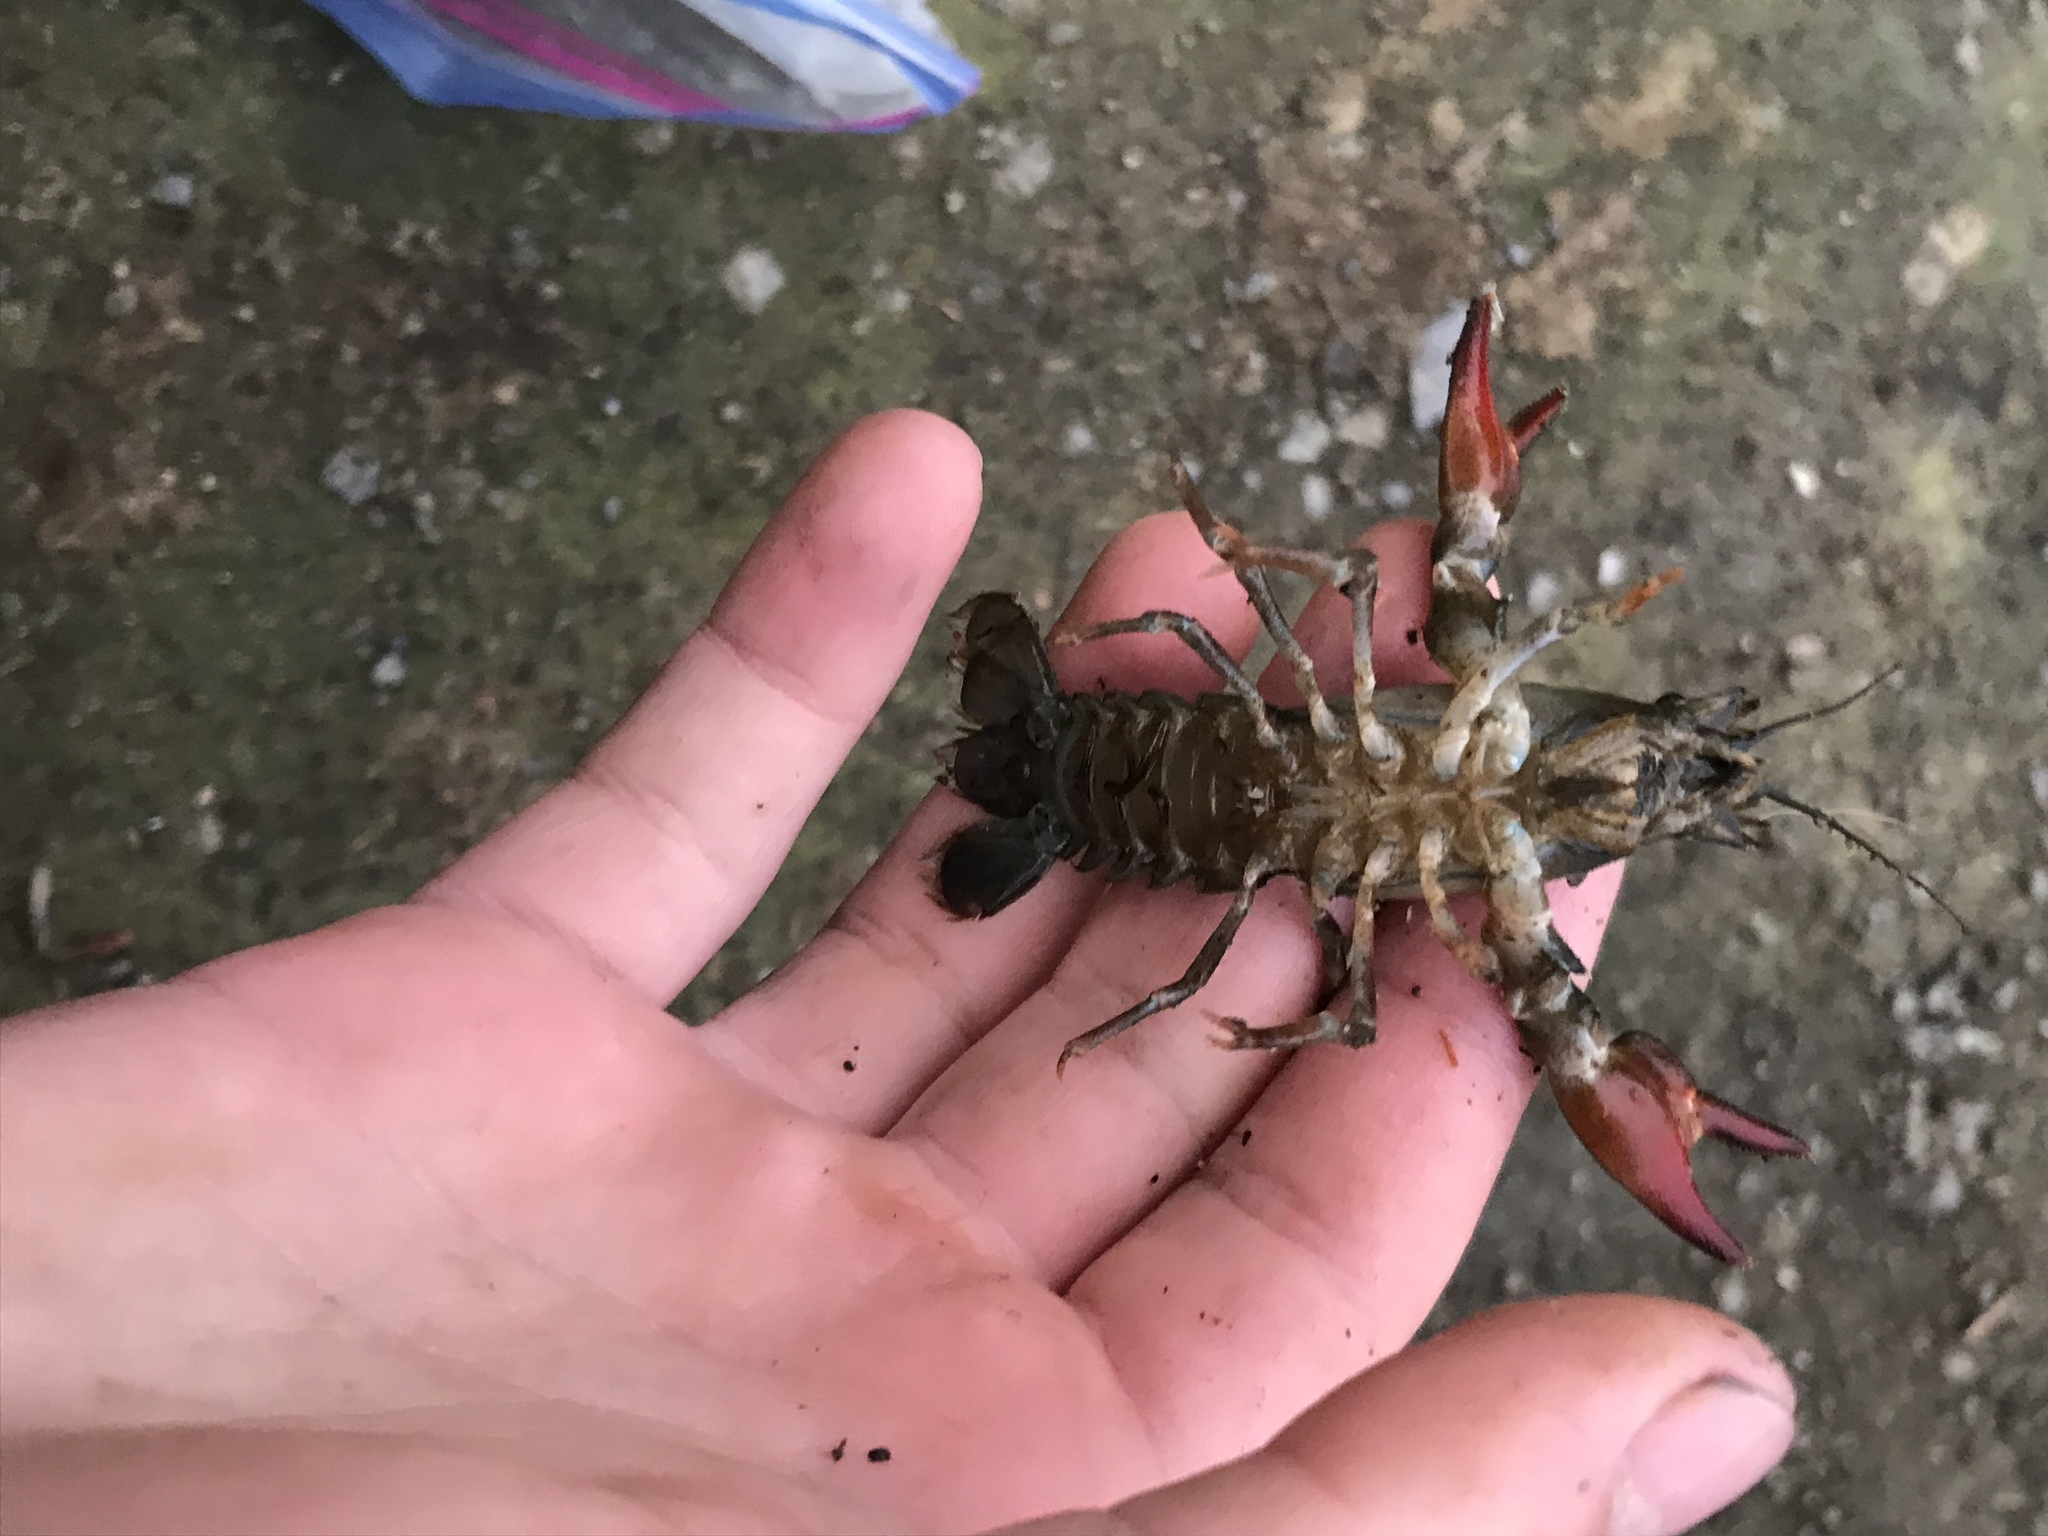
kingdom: Animalia
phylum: Arthropoda
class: Malacostraca
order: Decapoda
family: Astacidae
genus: Pacifastacus
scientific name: Pacifastacus leniusculus
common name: Signal crayfish
